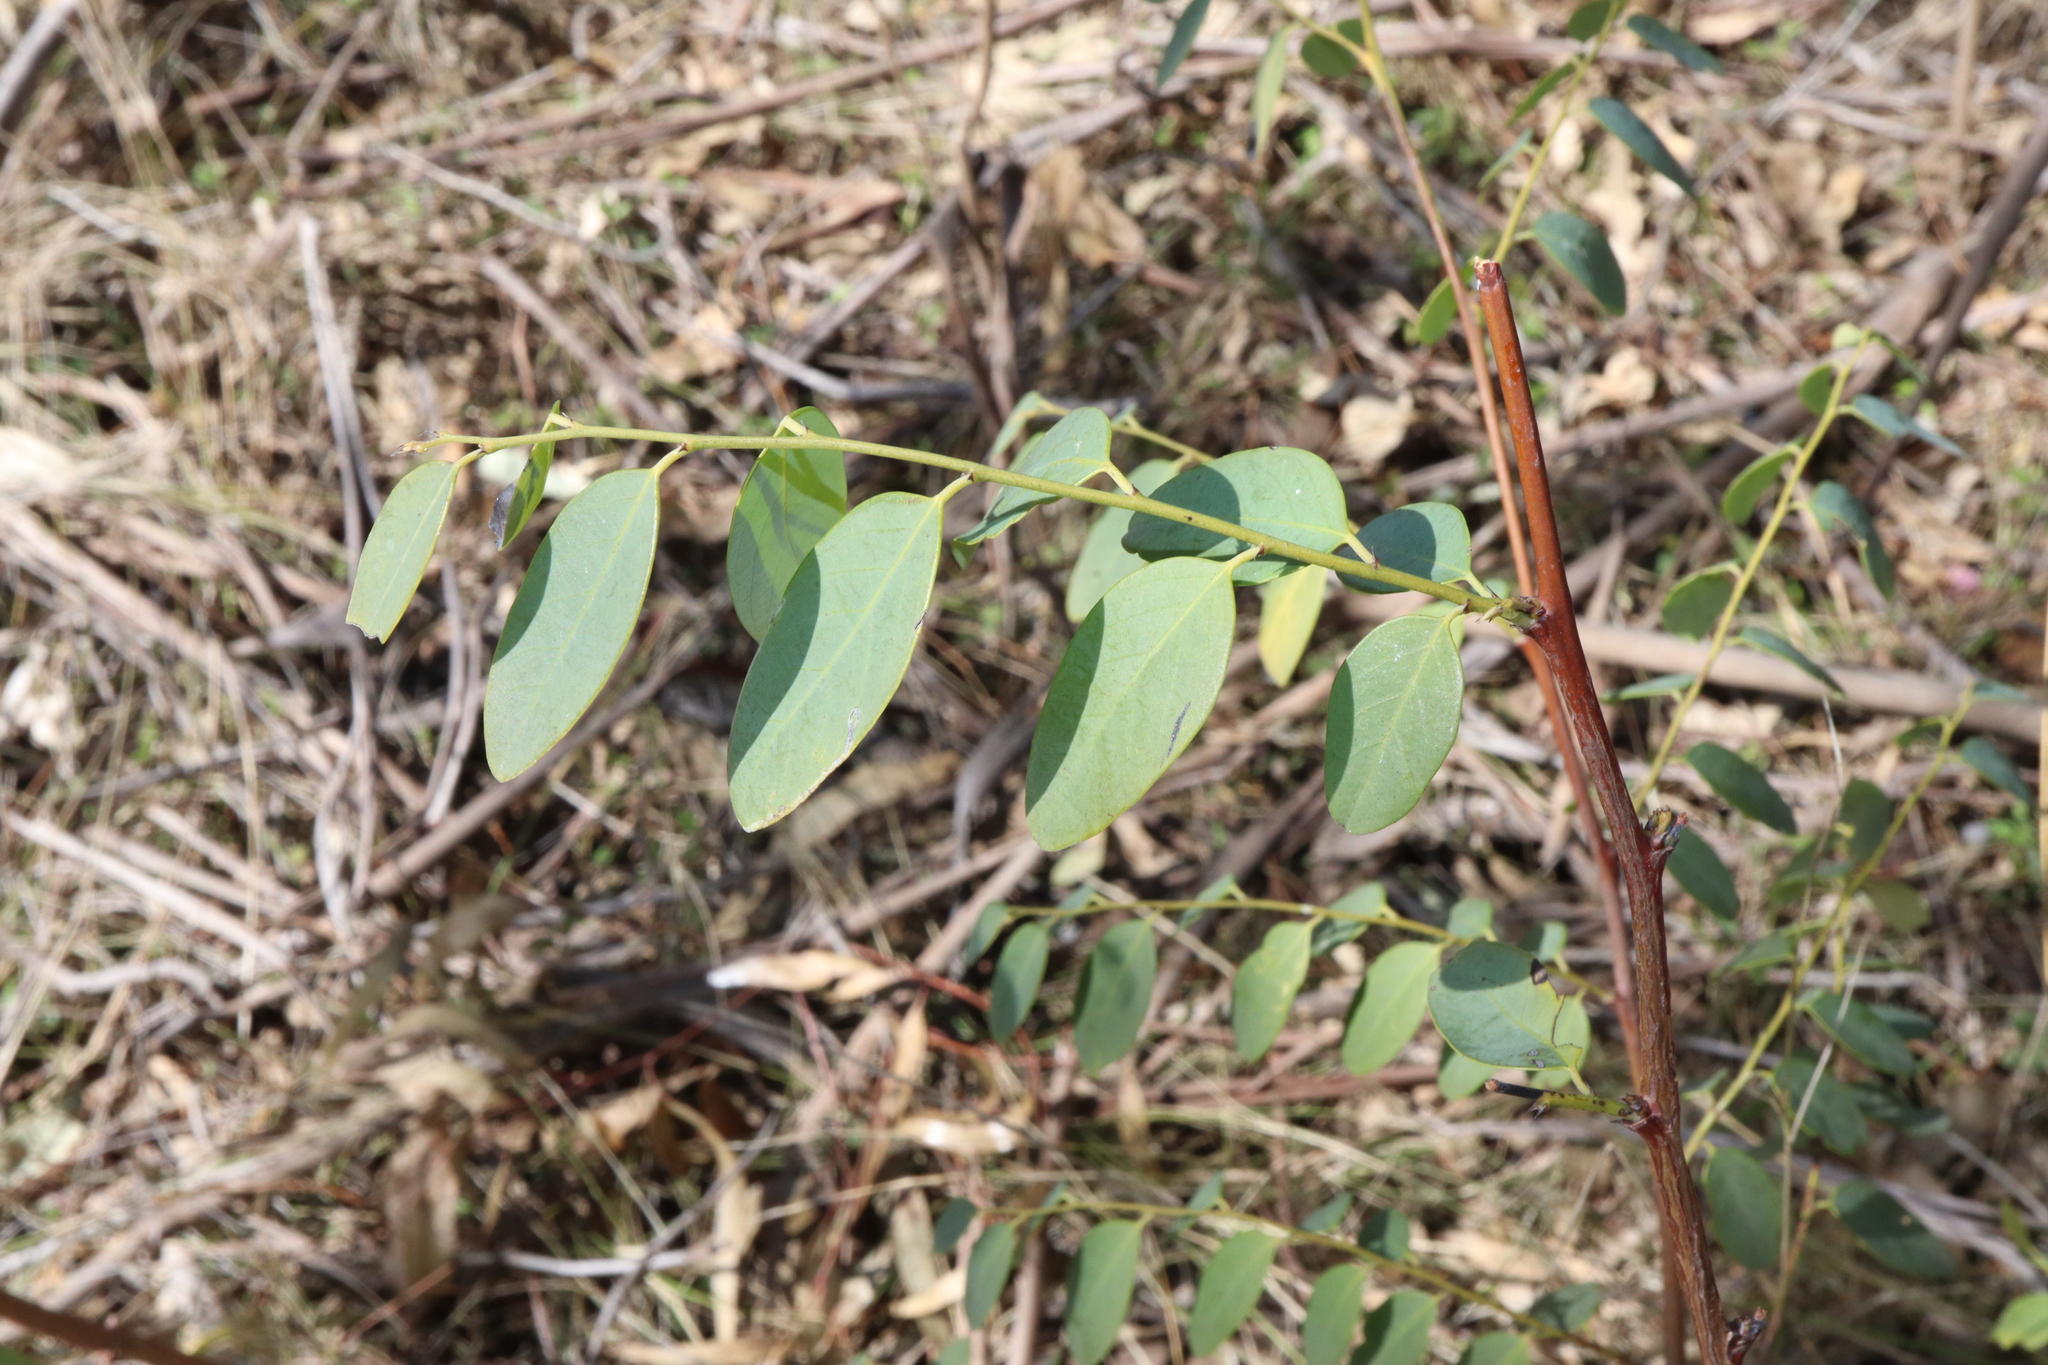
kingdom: Plantae
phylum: Tracheophyta
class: Magnoliopsida
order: Malpighiales
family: Phyllanthaceae
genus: Breynia
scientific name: Breynia oblongifolia
